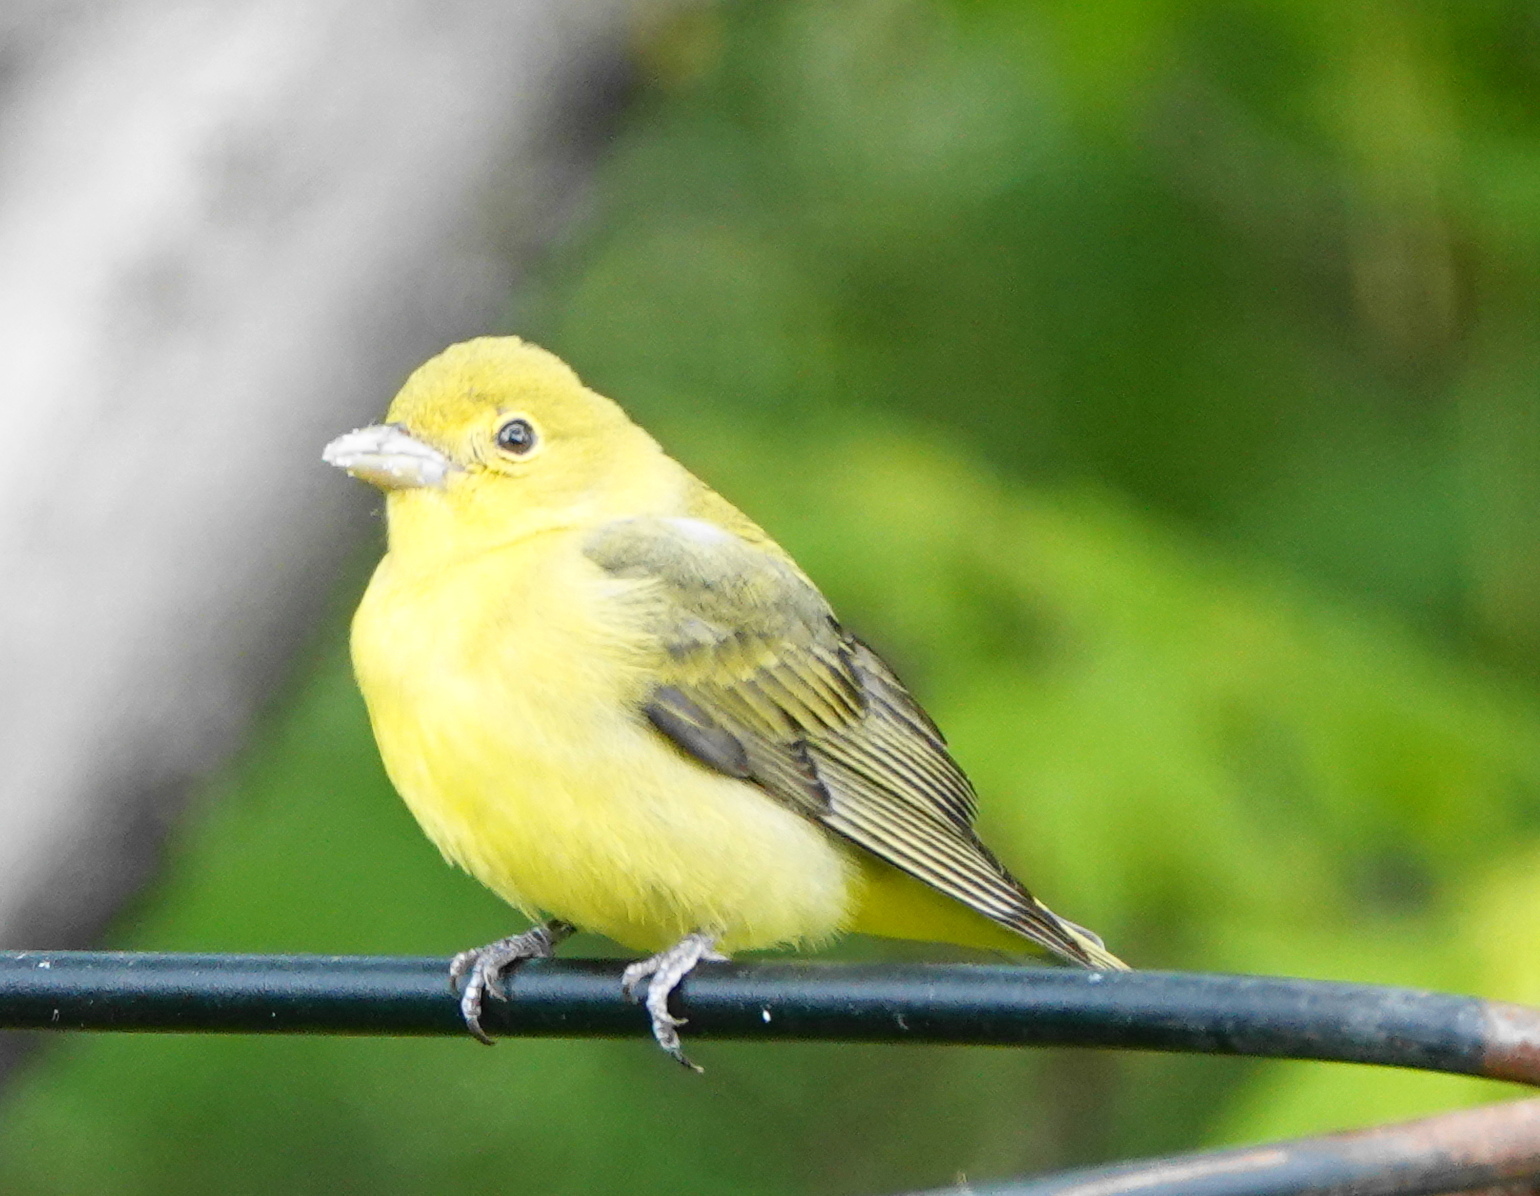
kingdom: Animalia
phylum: Chordata
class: Aves
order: Passeriformes
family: Cardinalidae
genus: Piranga
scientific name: Piranga olivacea
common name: Scarlet tanager
